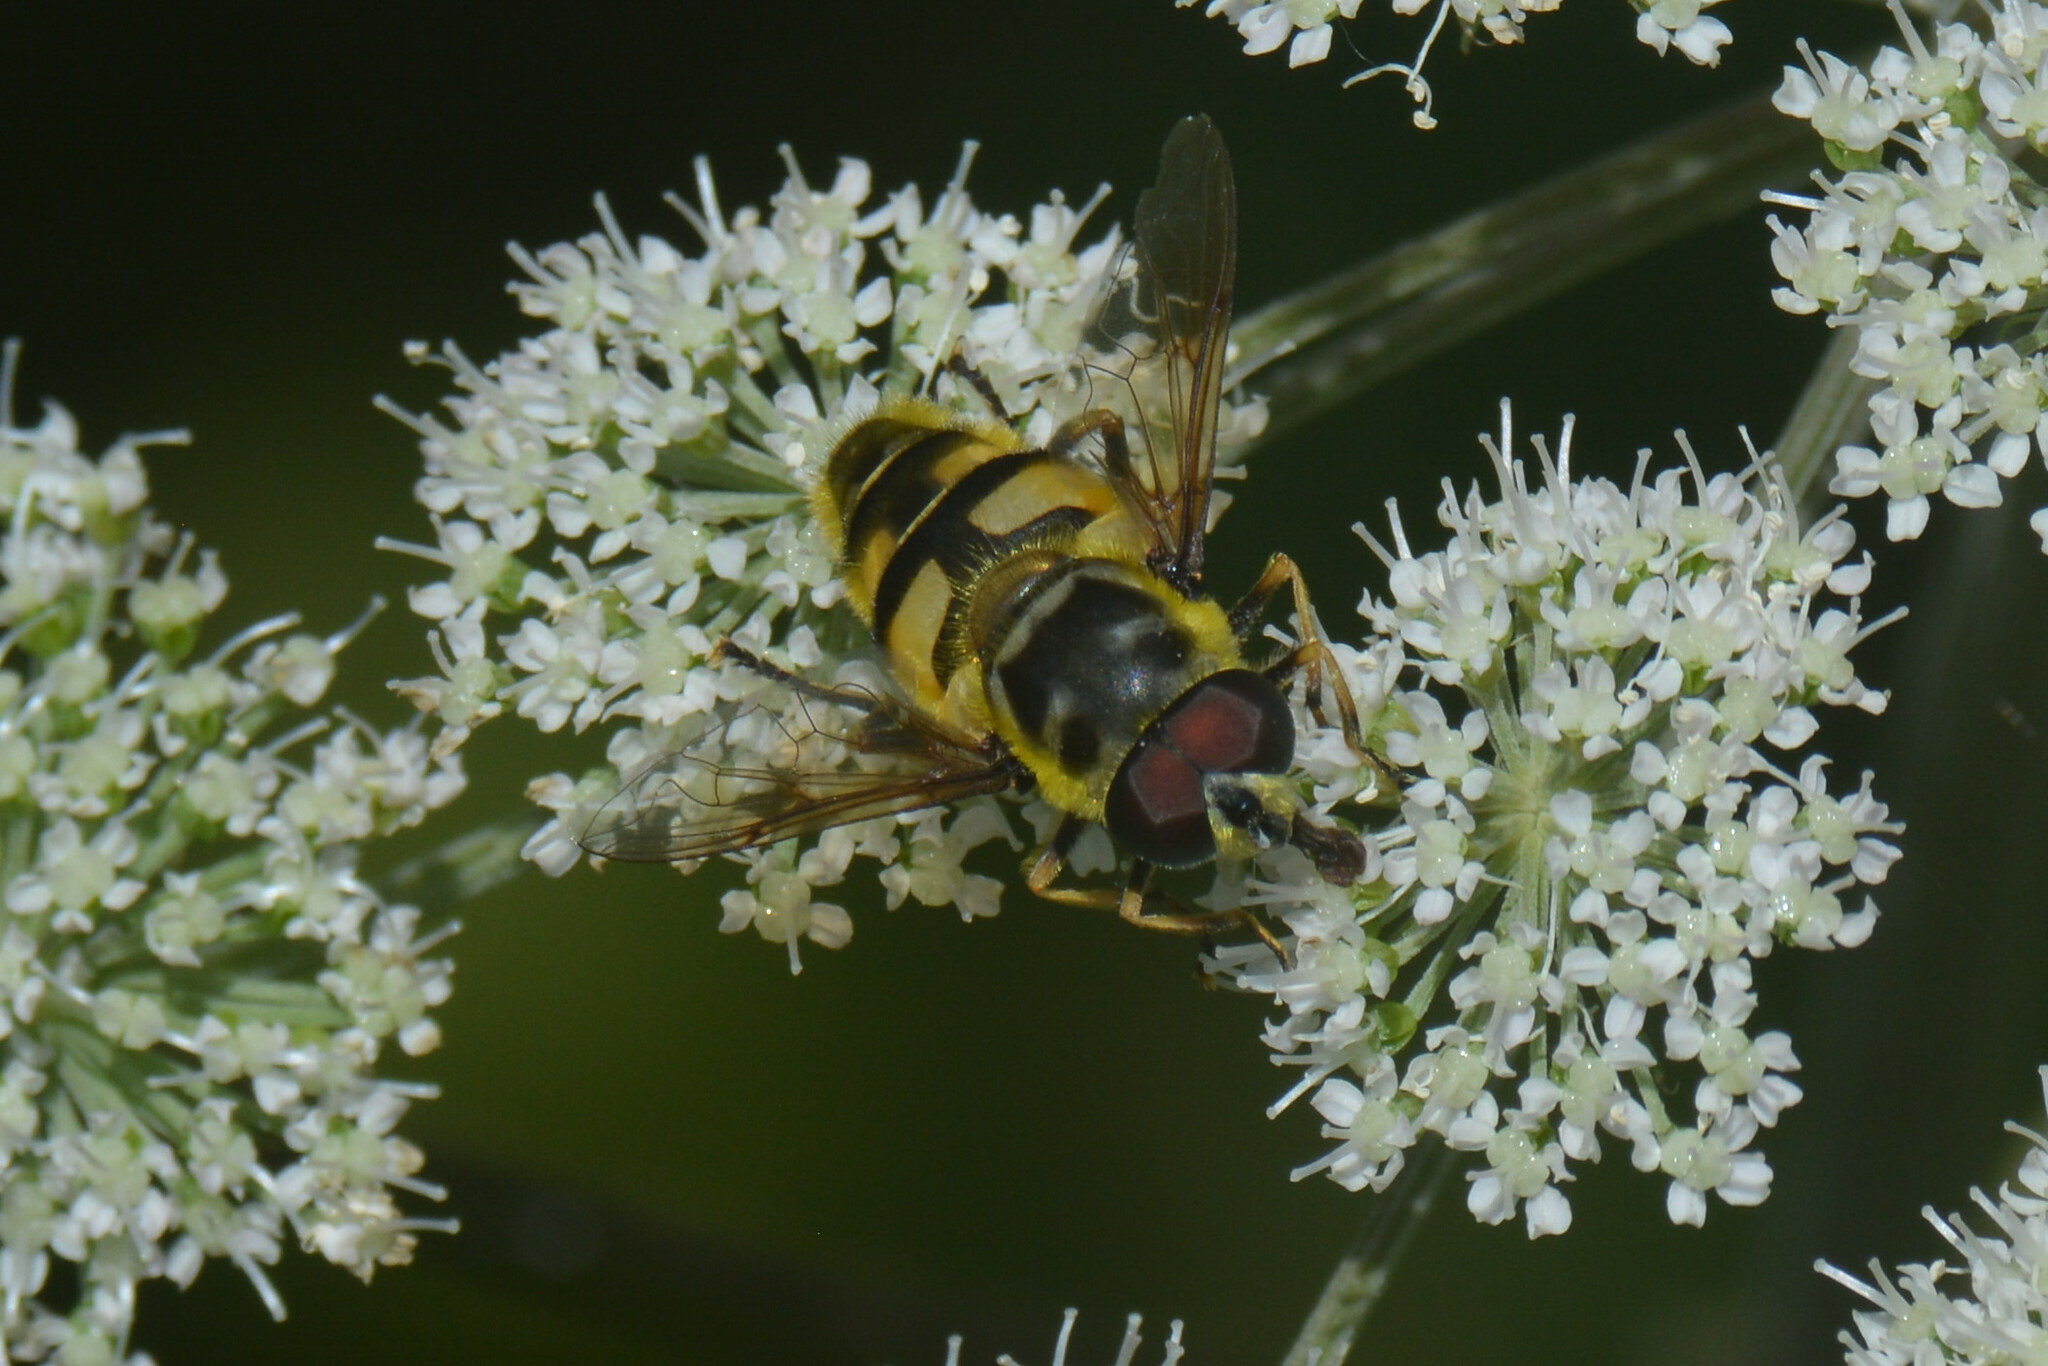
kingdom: Animalia
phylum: Arthropoda
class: Insecta
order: Diptera
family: Syrphidae
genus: Myathropa
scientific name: Myathropa florea
